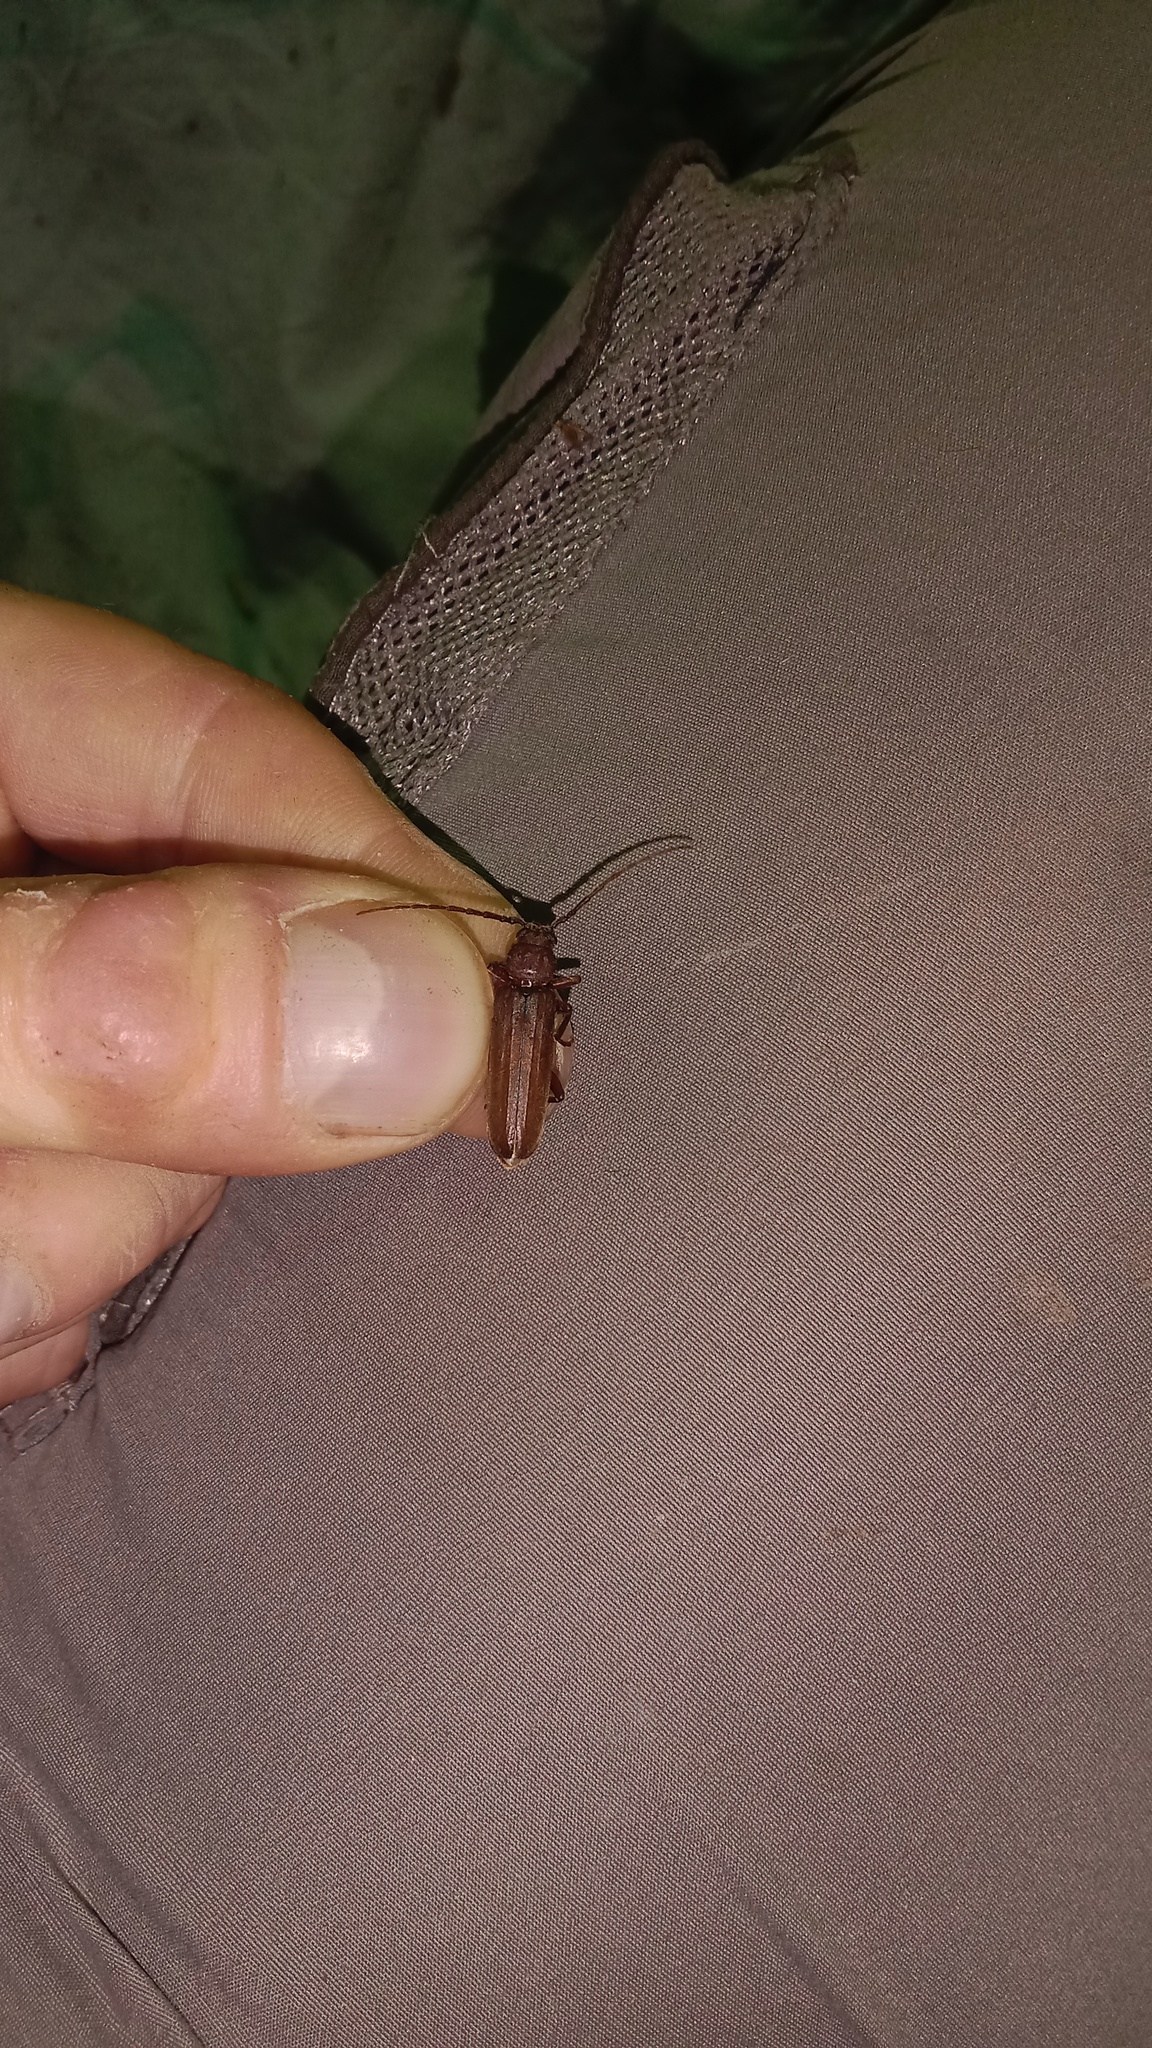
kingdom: Animalia
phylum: Arthropoda
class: Insecta
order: Coleoptera
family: Cerambycidae
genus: Arhopalus
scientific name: Arhopalus rusticus
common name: Rust pine borer
